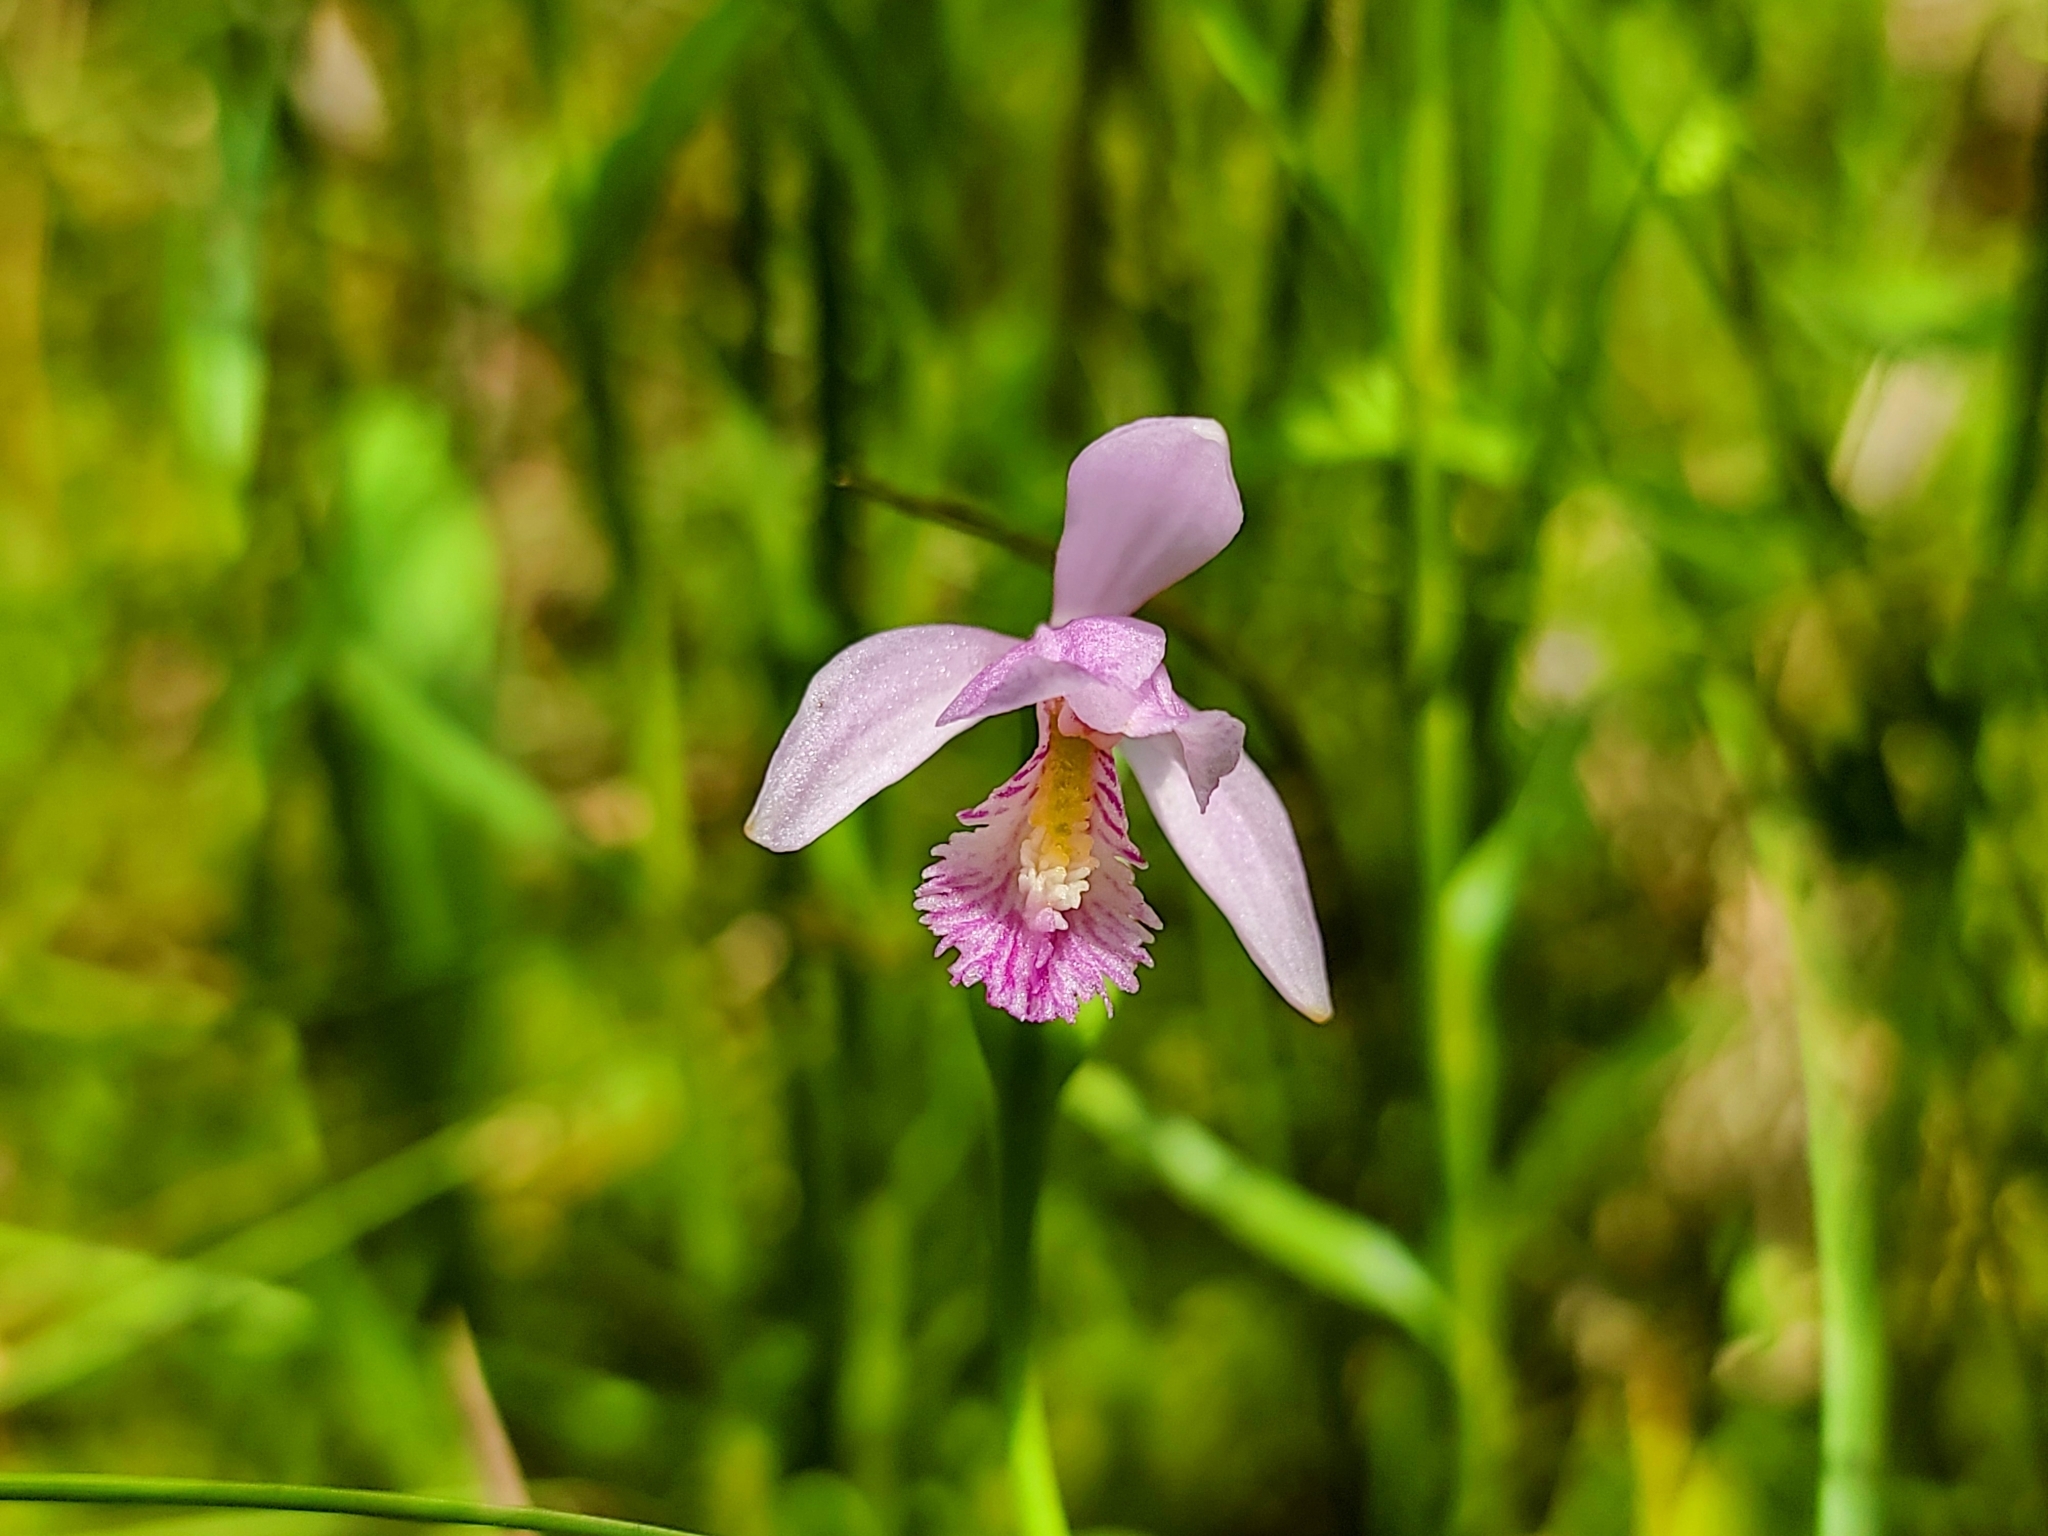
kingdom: Plantae
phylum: Tracheophyta
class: Liliopsida
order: Asparagales
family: Orchidaceae
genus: Pogonia
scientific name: Pogonia ophioglossoides
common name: Rose pogonia
